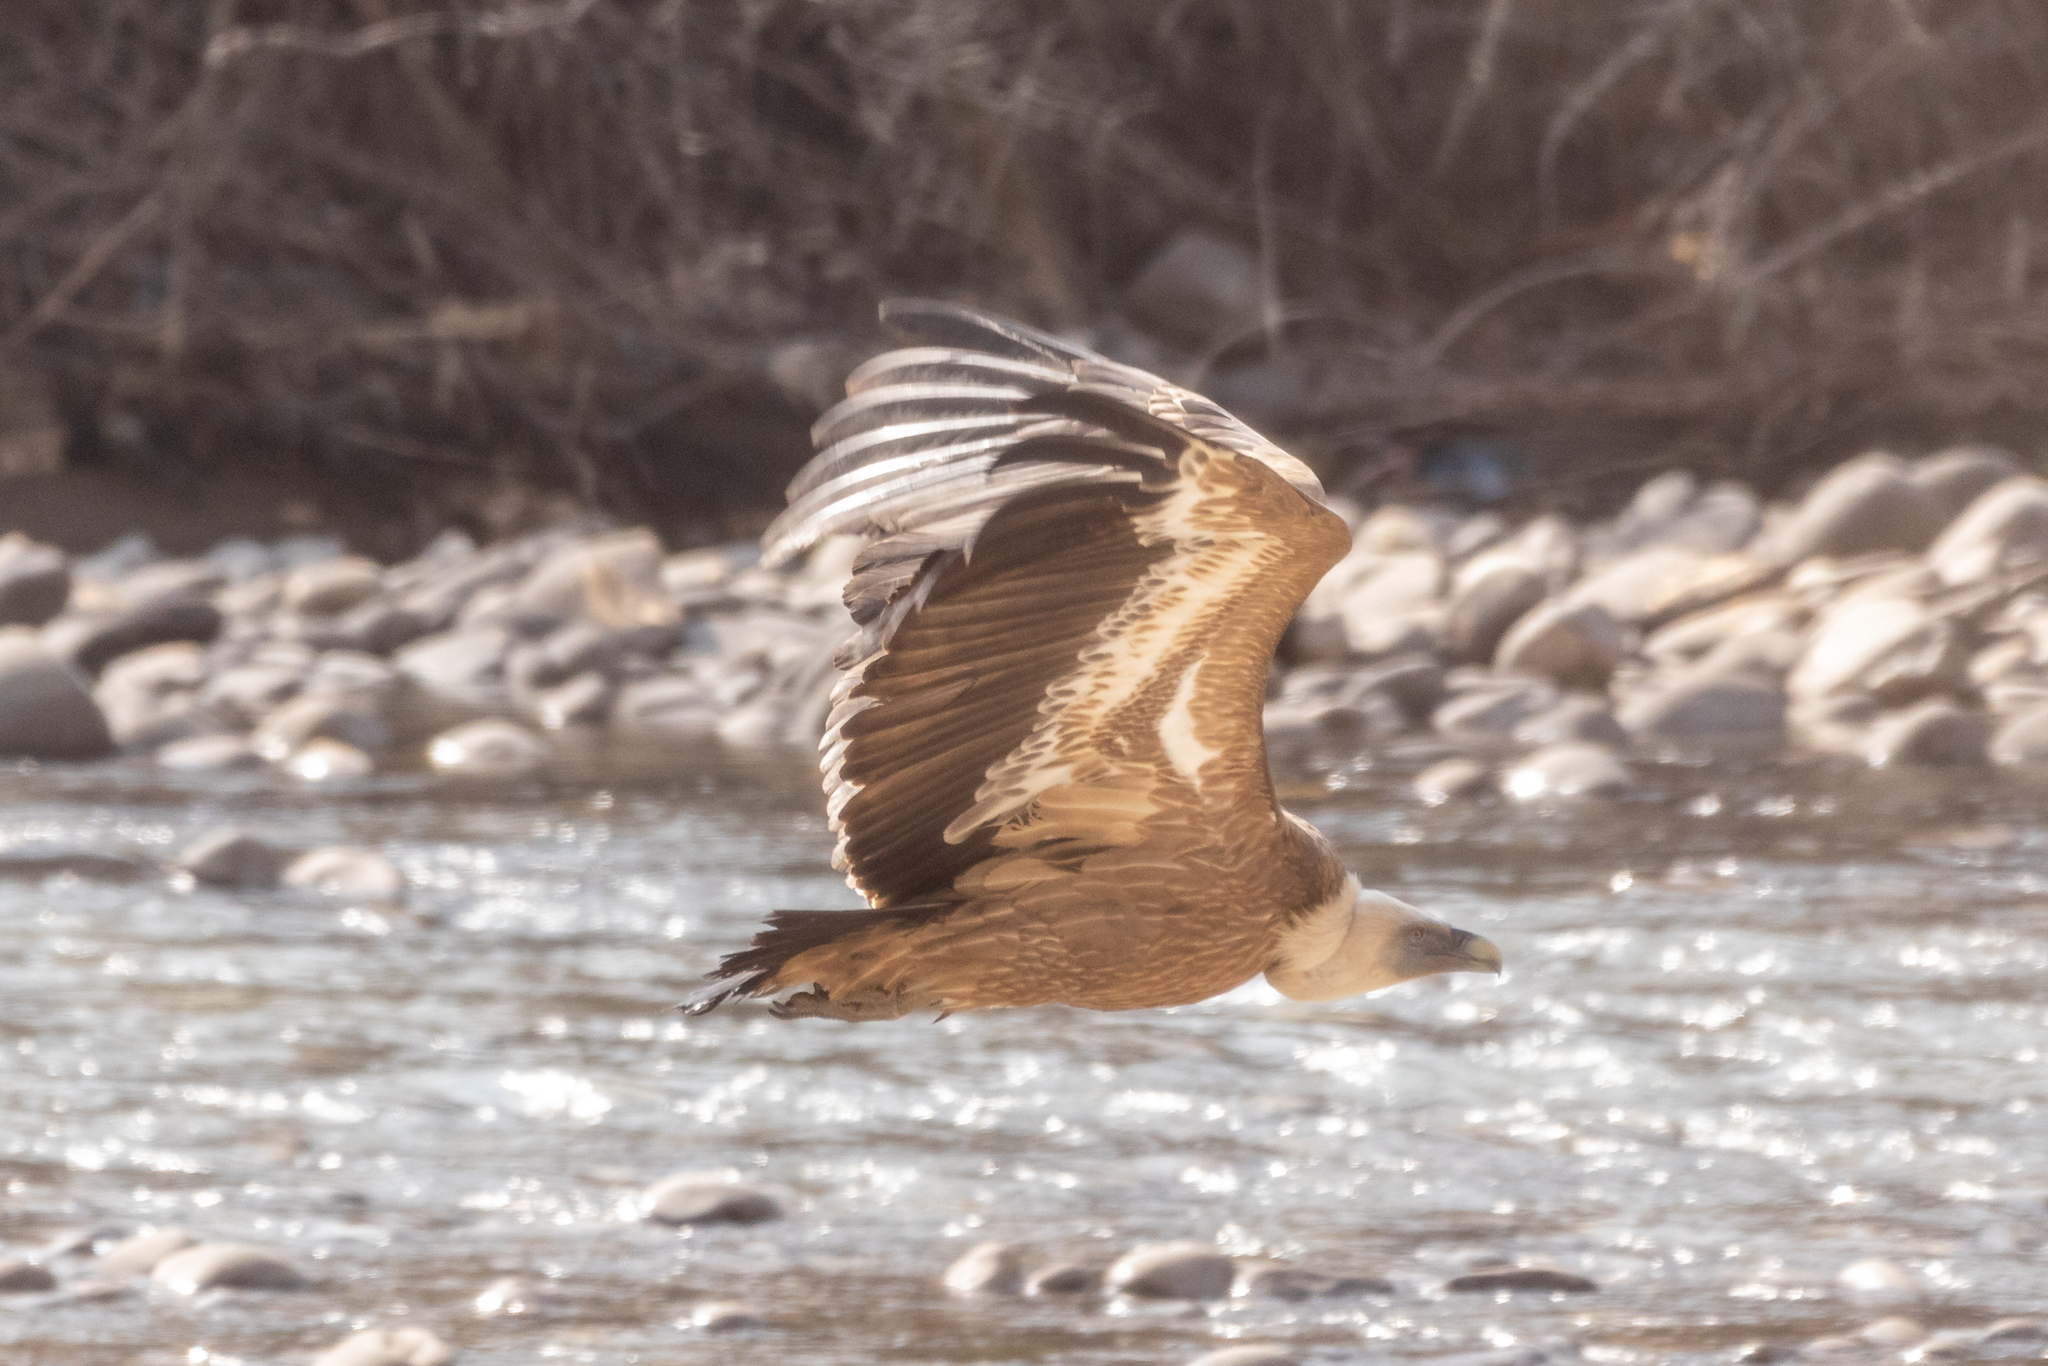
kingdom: Animalia
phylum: Chordata
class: Aves
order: Accipitriformes
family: Accipitridae
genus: Gyps
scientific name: Gyps fulvus
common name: Griffon vulture
